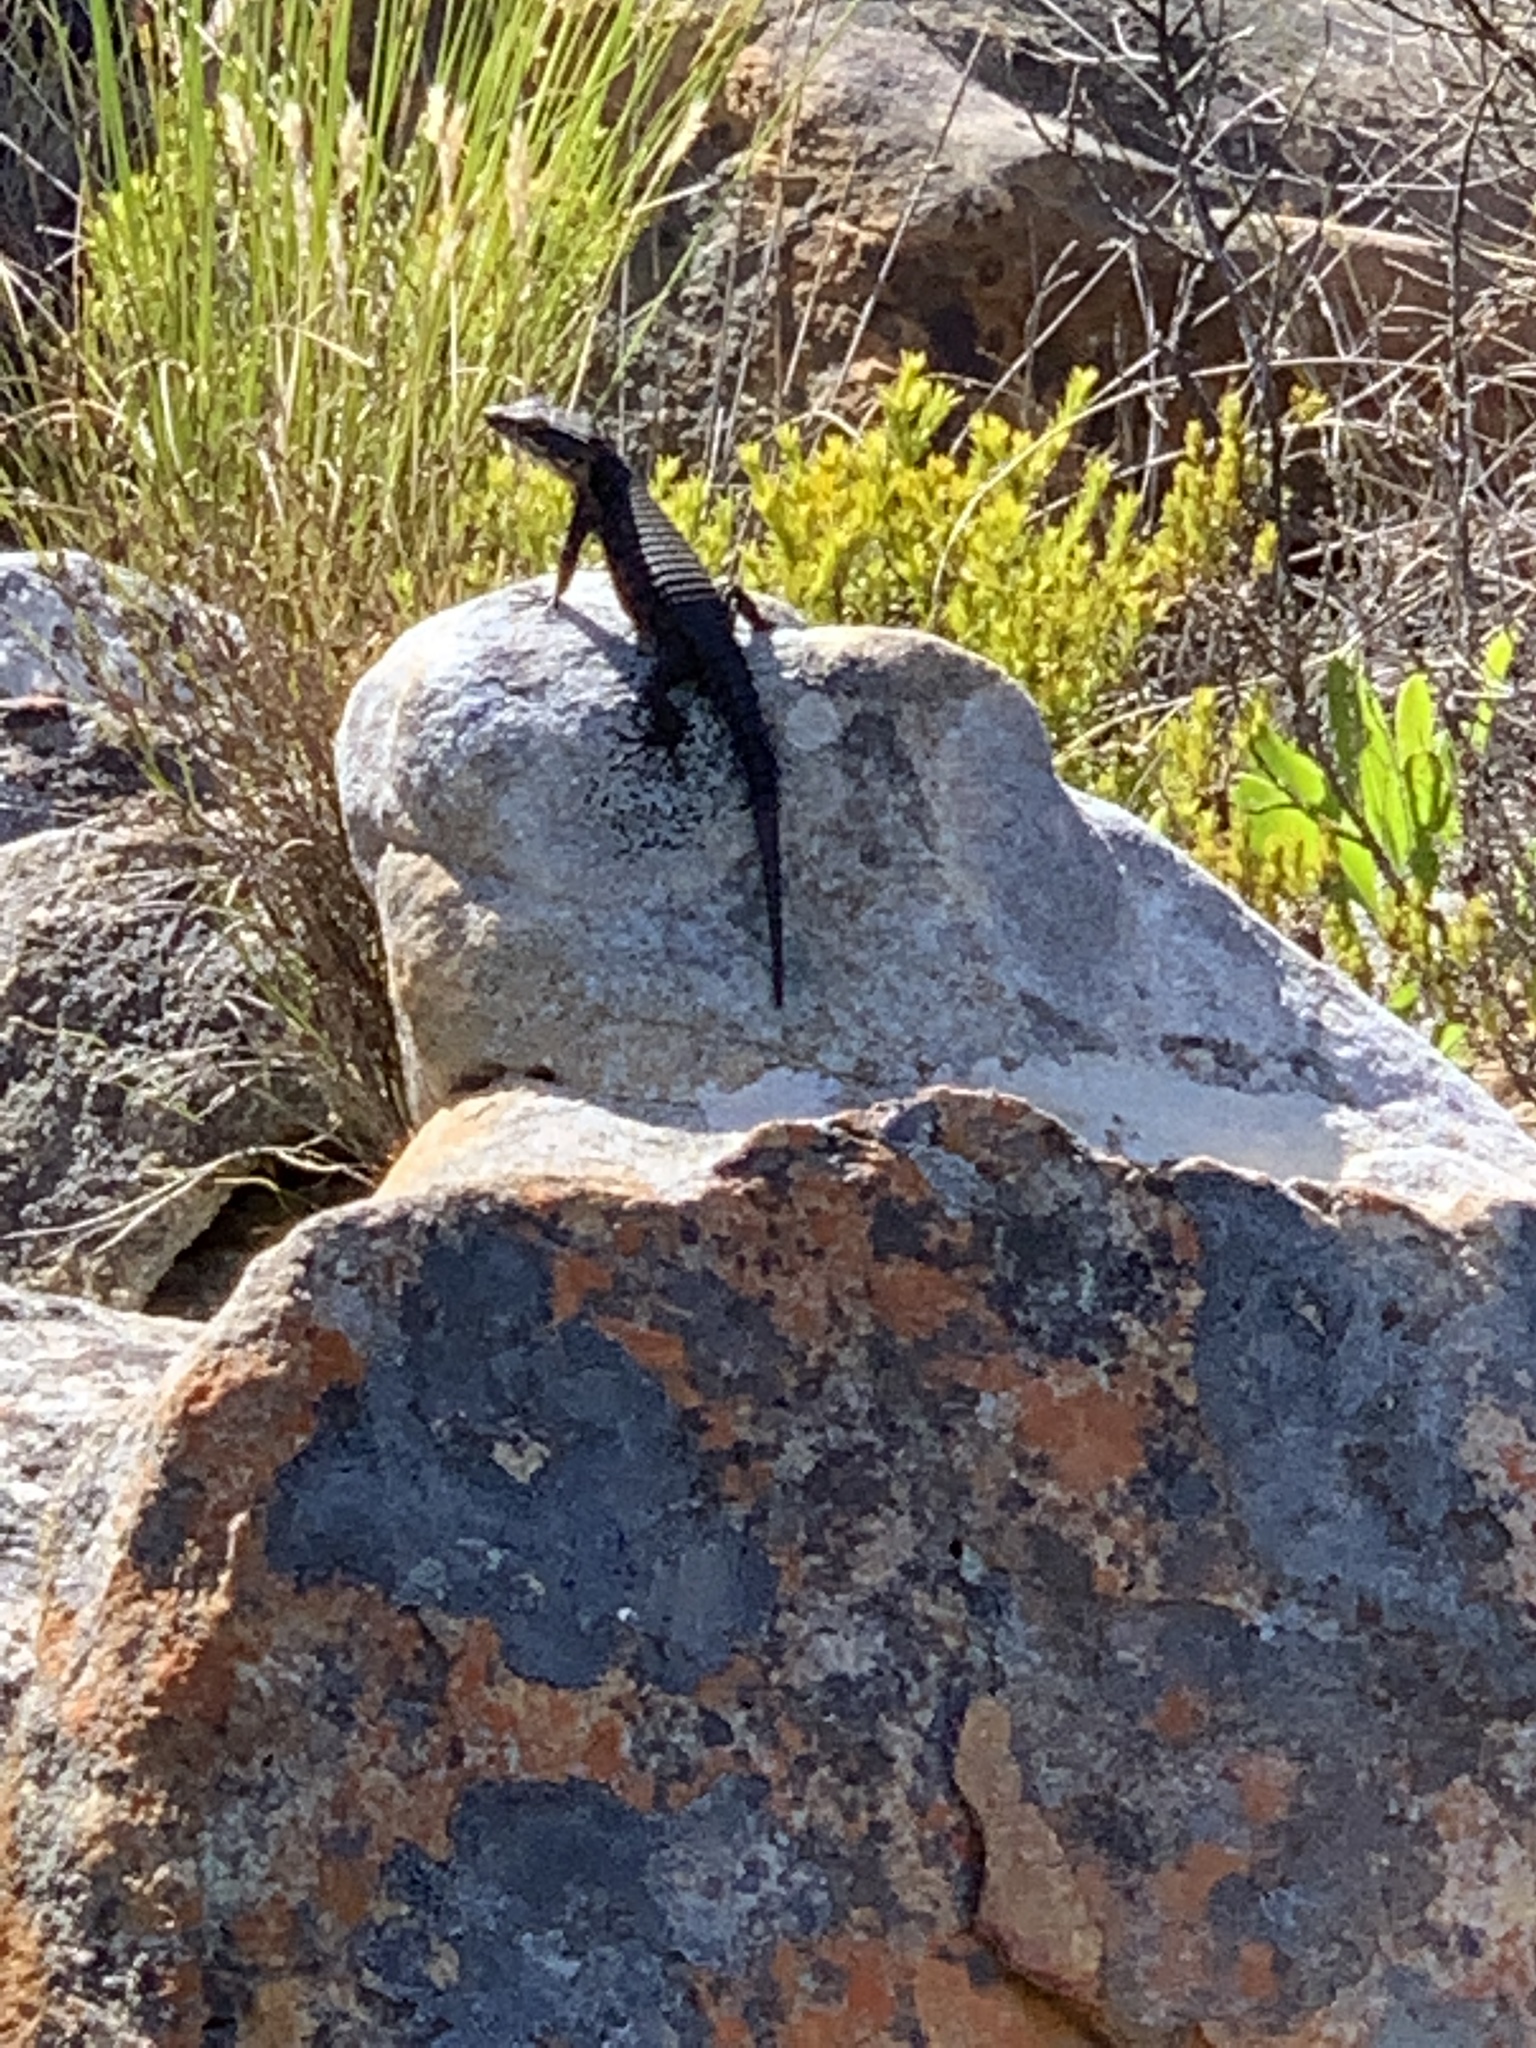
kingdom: Animalia
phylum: Chordata
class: Squamata
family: Cordylidae
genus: Cordylus
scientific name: Cordylus niger
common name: Black girdled lizard
